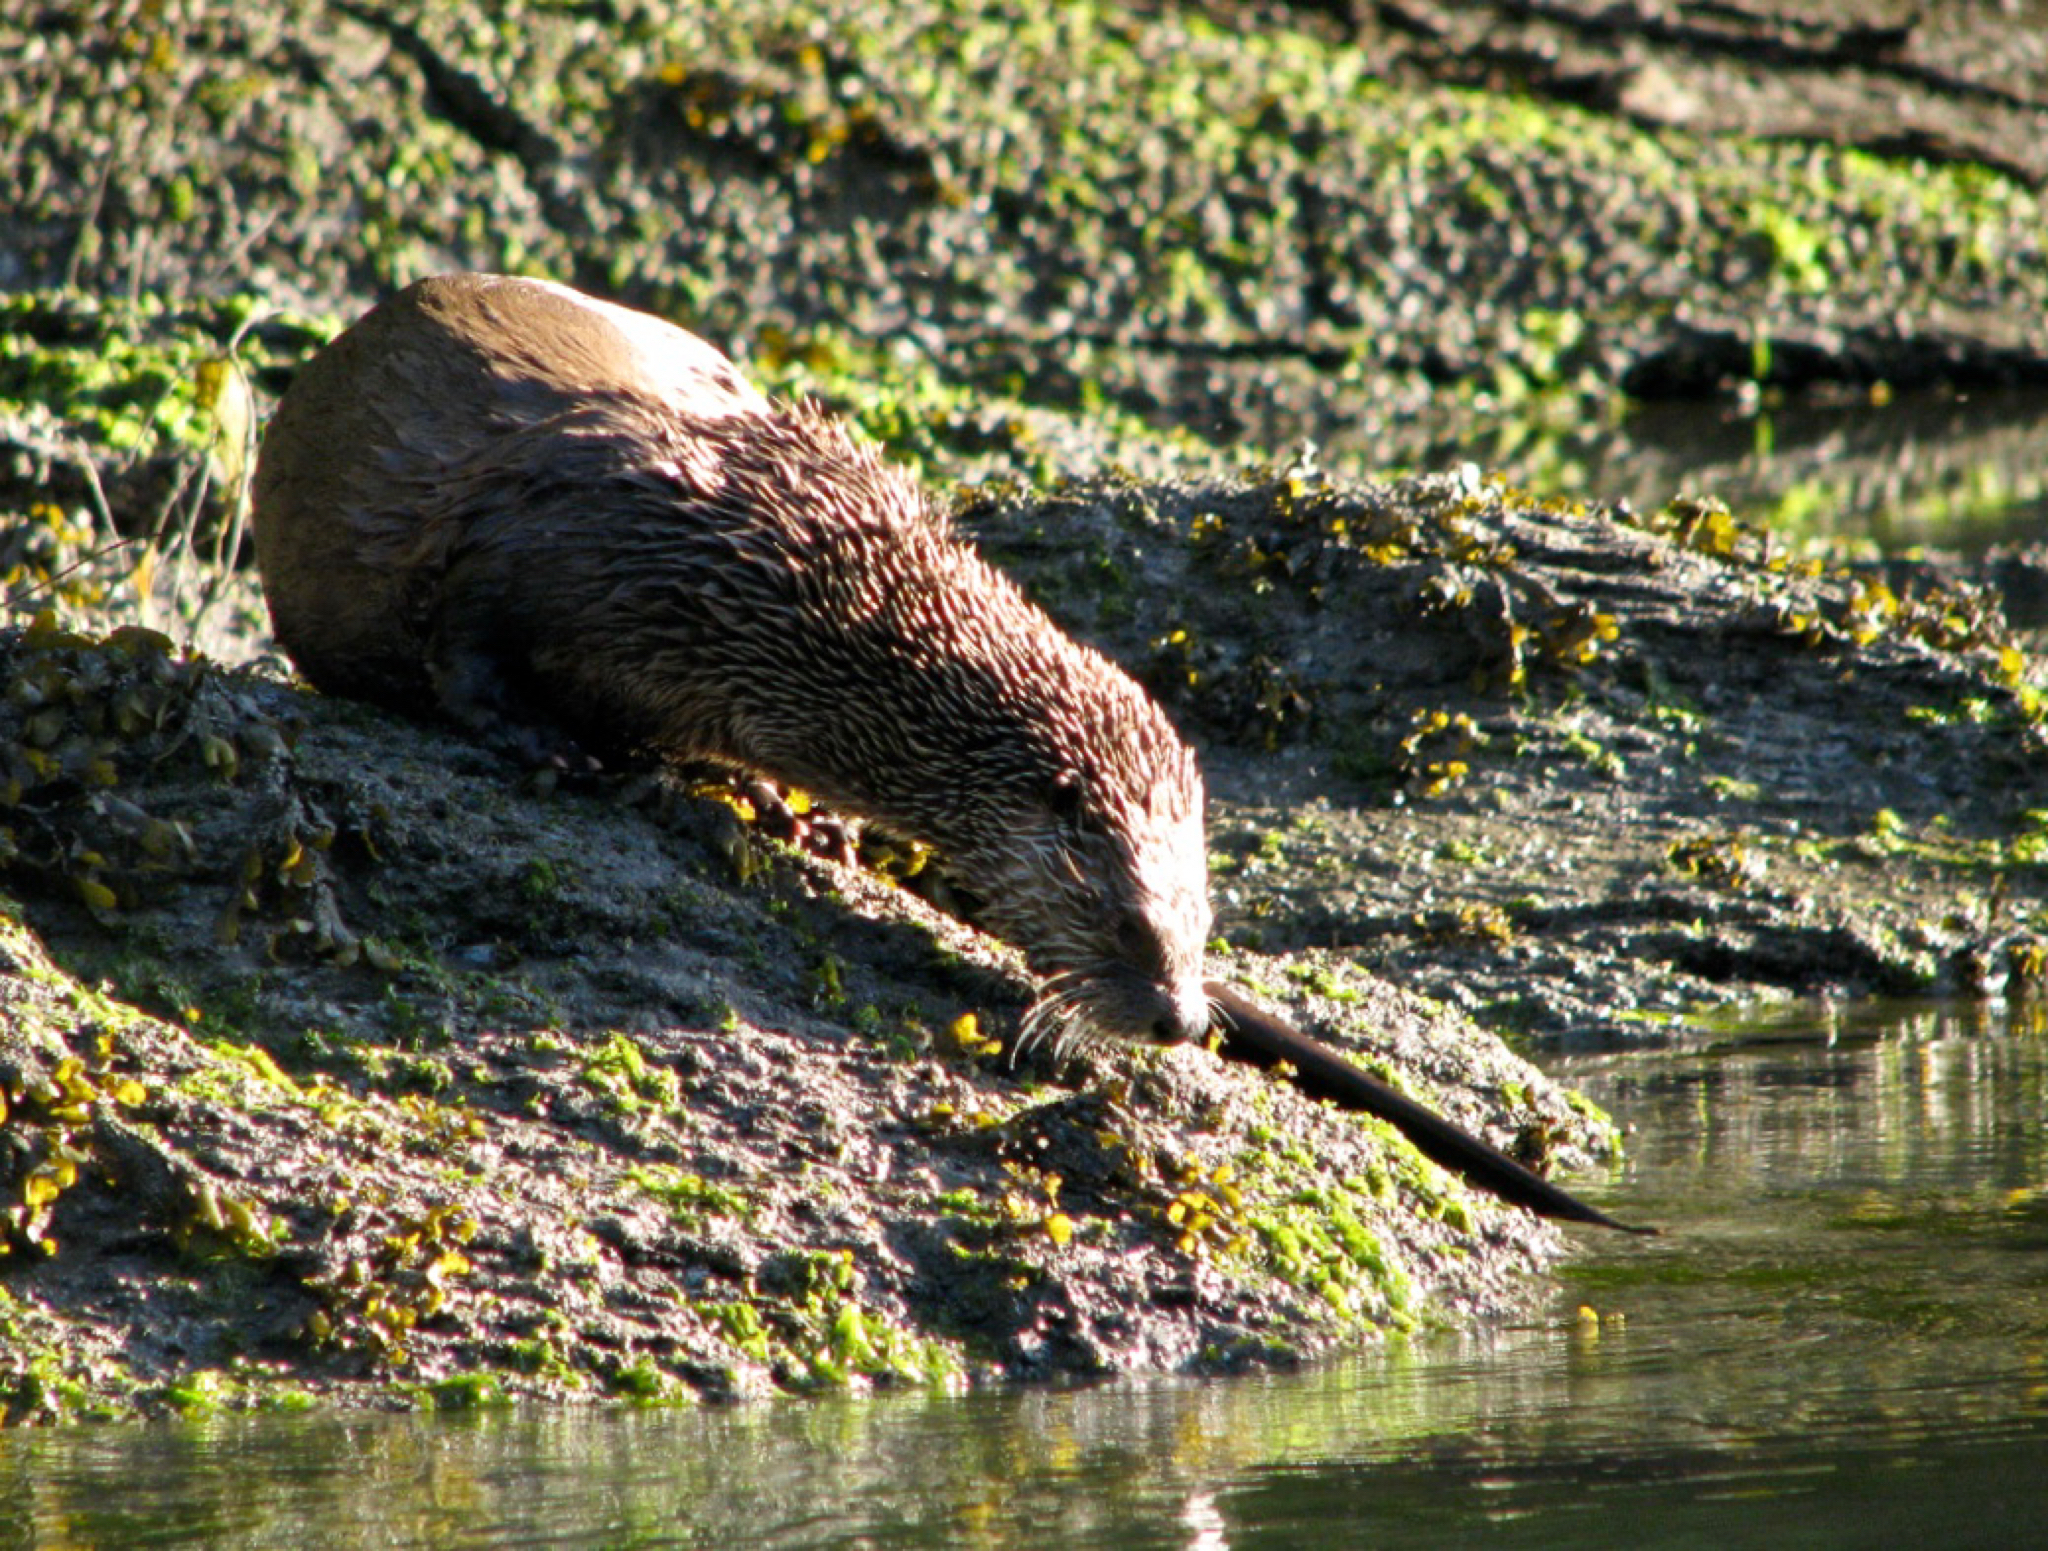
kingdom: Animalia
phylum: Chordata
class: Mammalia
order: Carnivora
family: Mustelidae
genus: Lontra
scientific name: Lontra canadensis
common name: North american river otter
